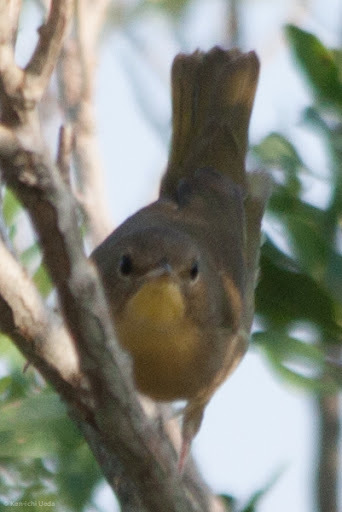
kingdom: Animalia
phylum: Chordata
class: Aves
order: Passeriformes
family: Parulidae
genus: Geothlypis
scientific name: Geothlypis trichas
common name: Common yellowthroat
